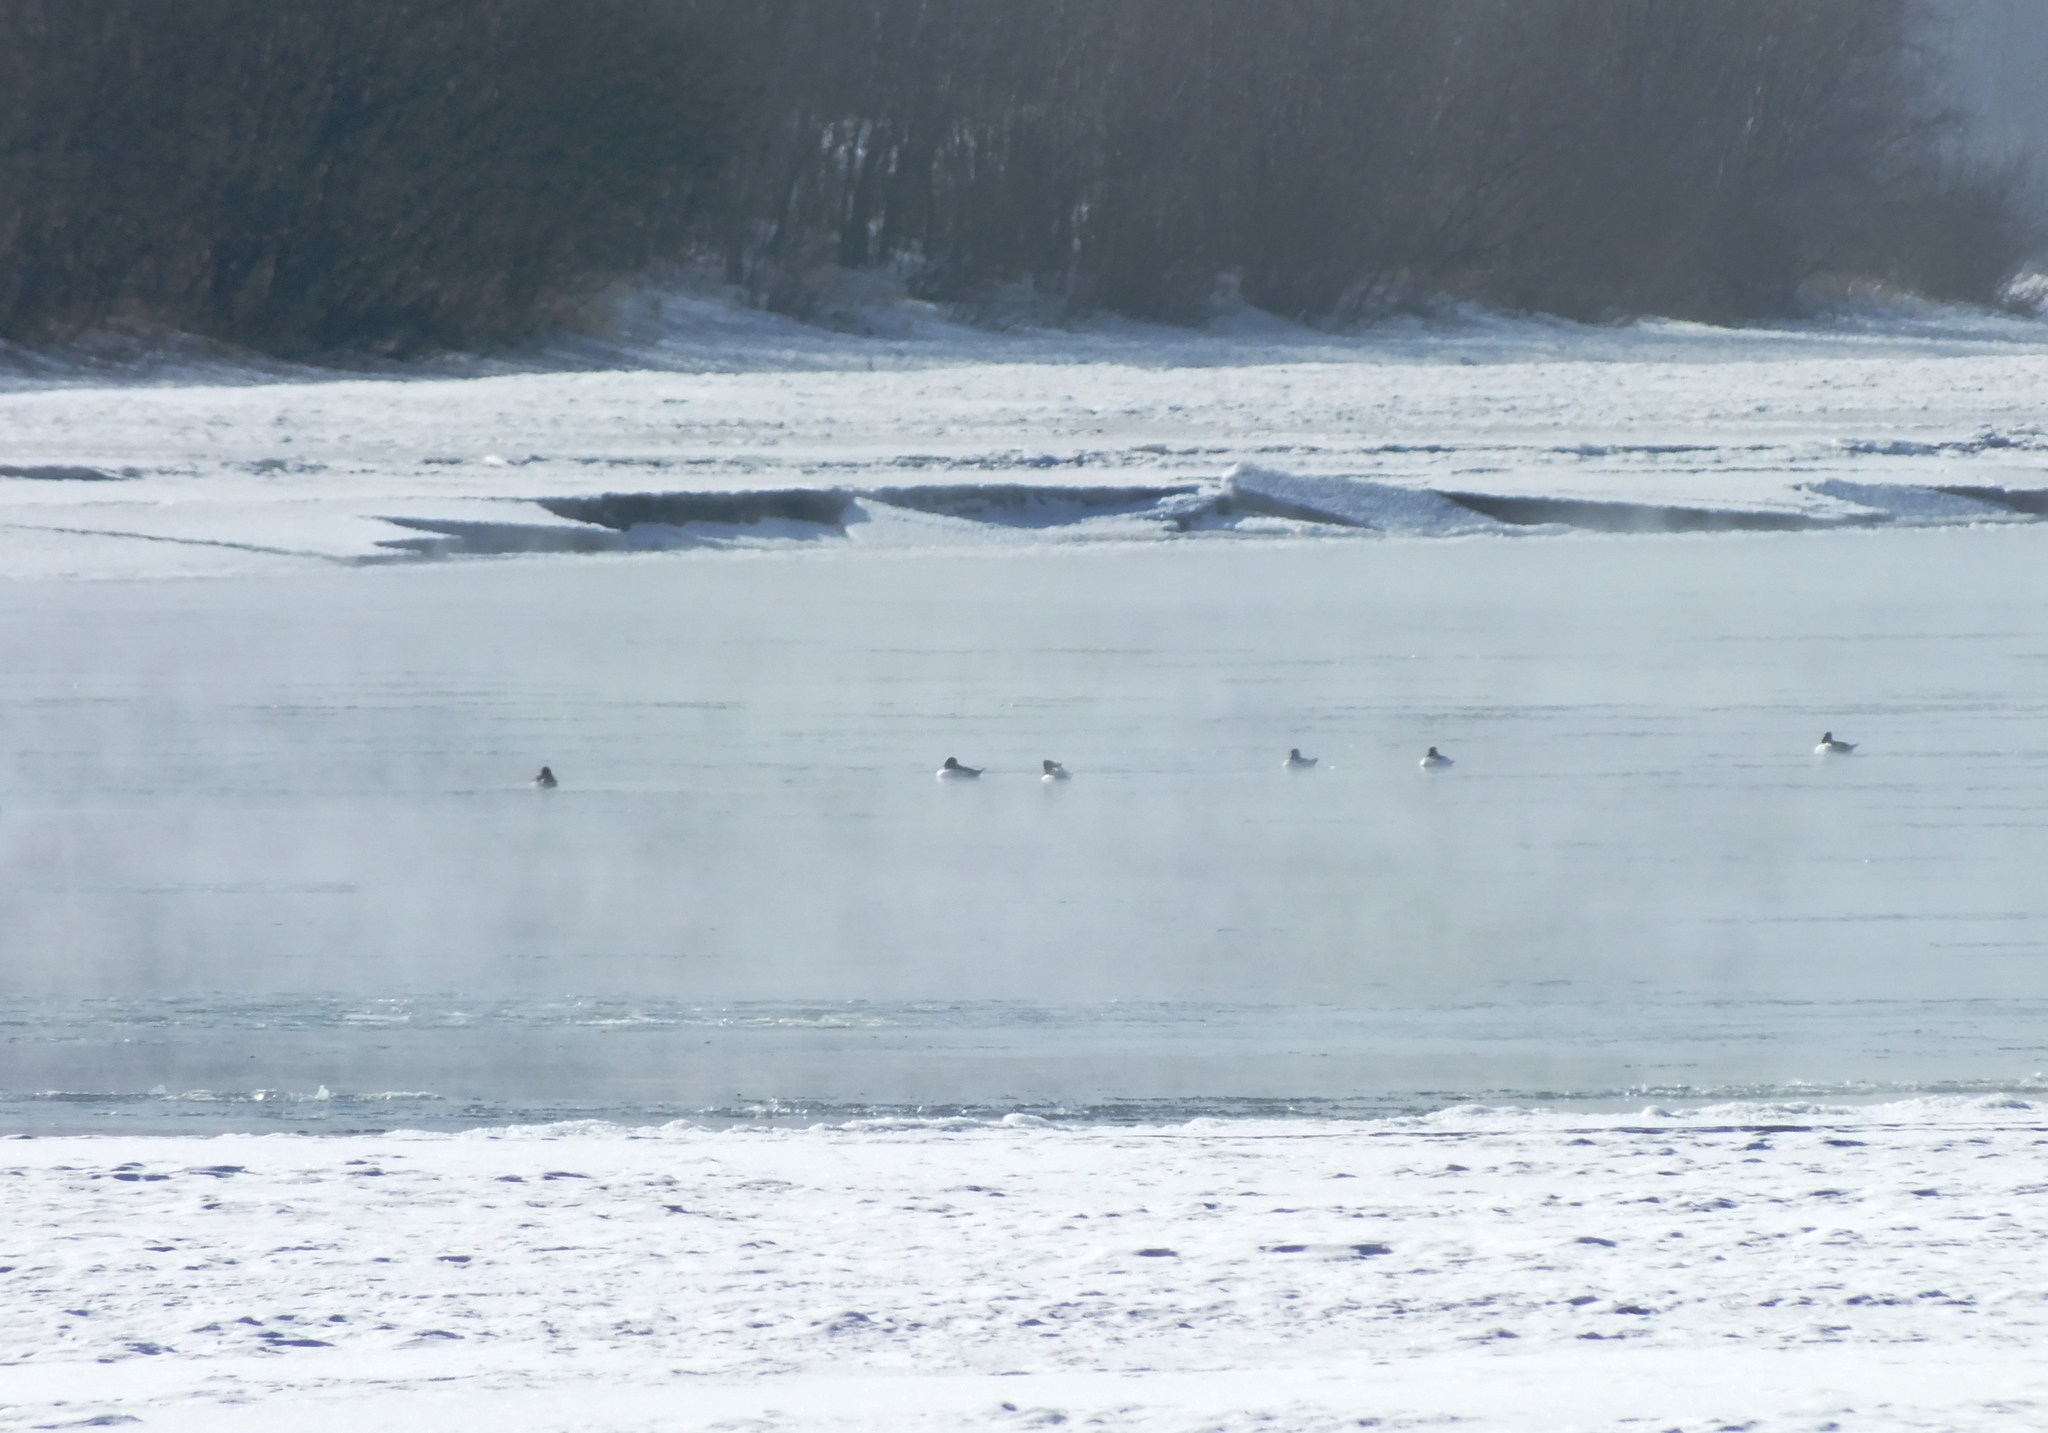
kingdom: Animalia
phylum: Chordata
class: Aves
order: Anseriformes
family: Anatidae
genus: Bucephala
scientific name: Bucephala clangula
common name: Common goldeneye
